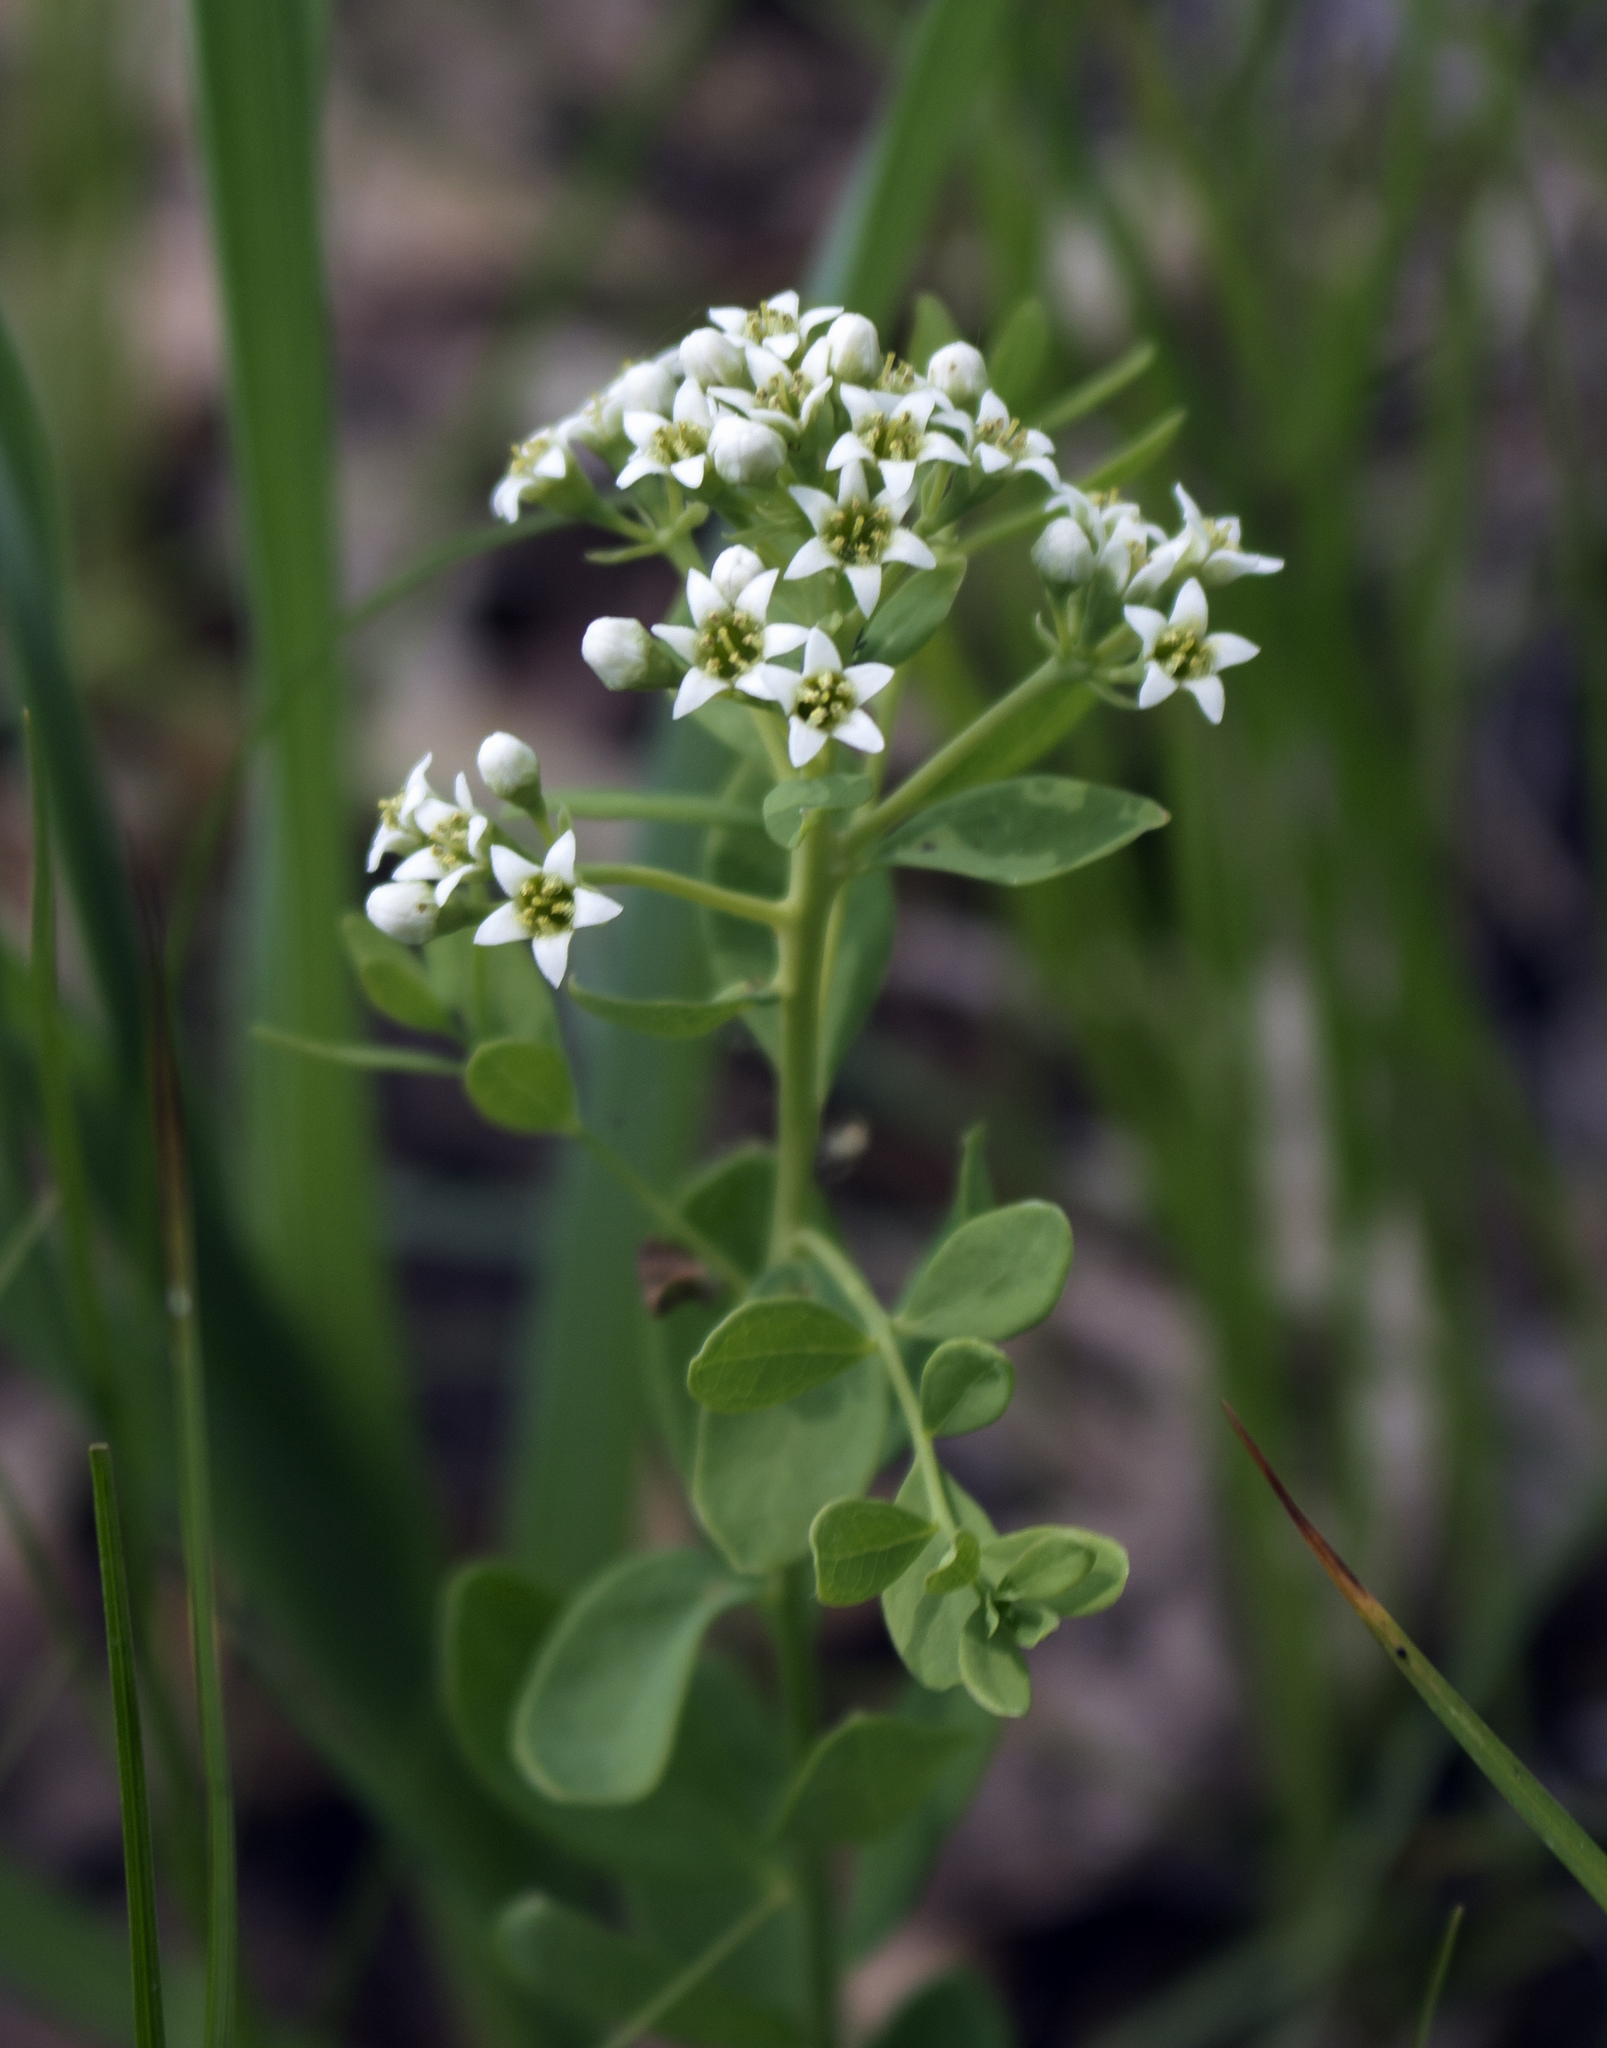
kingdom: Plantae
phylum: Tracheophyta
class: Magnoliopsida
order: Santalales
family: Comandraceae
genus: Comandra
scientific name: Comandra umbellata
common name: Bastard toadflax
